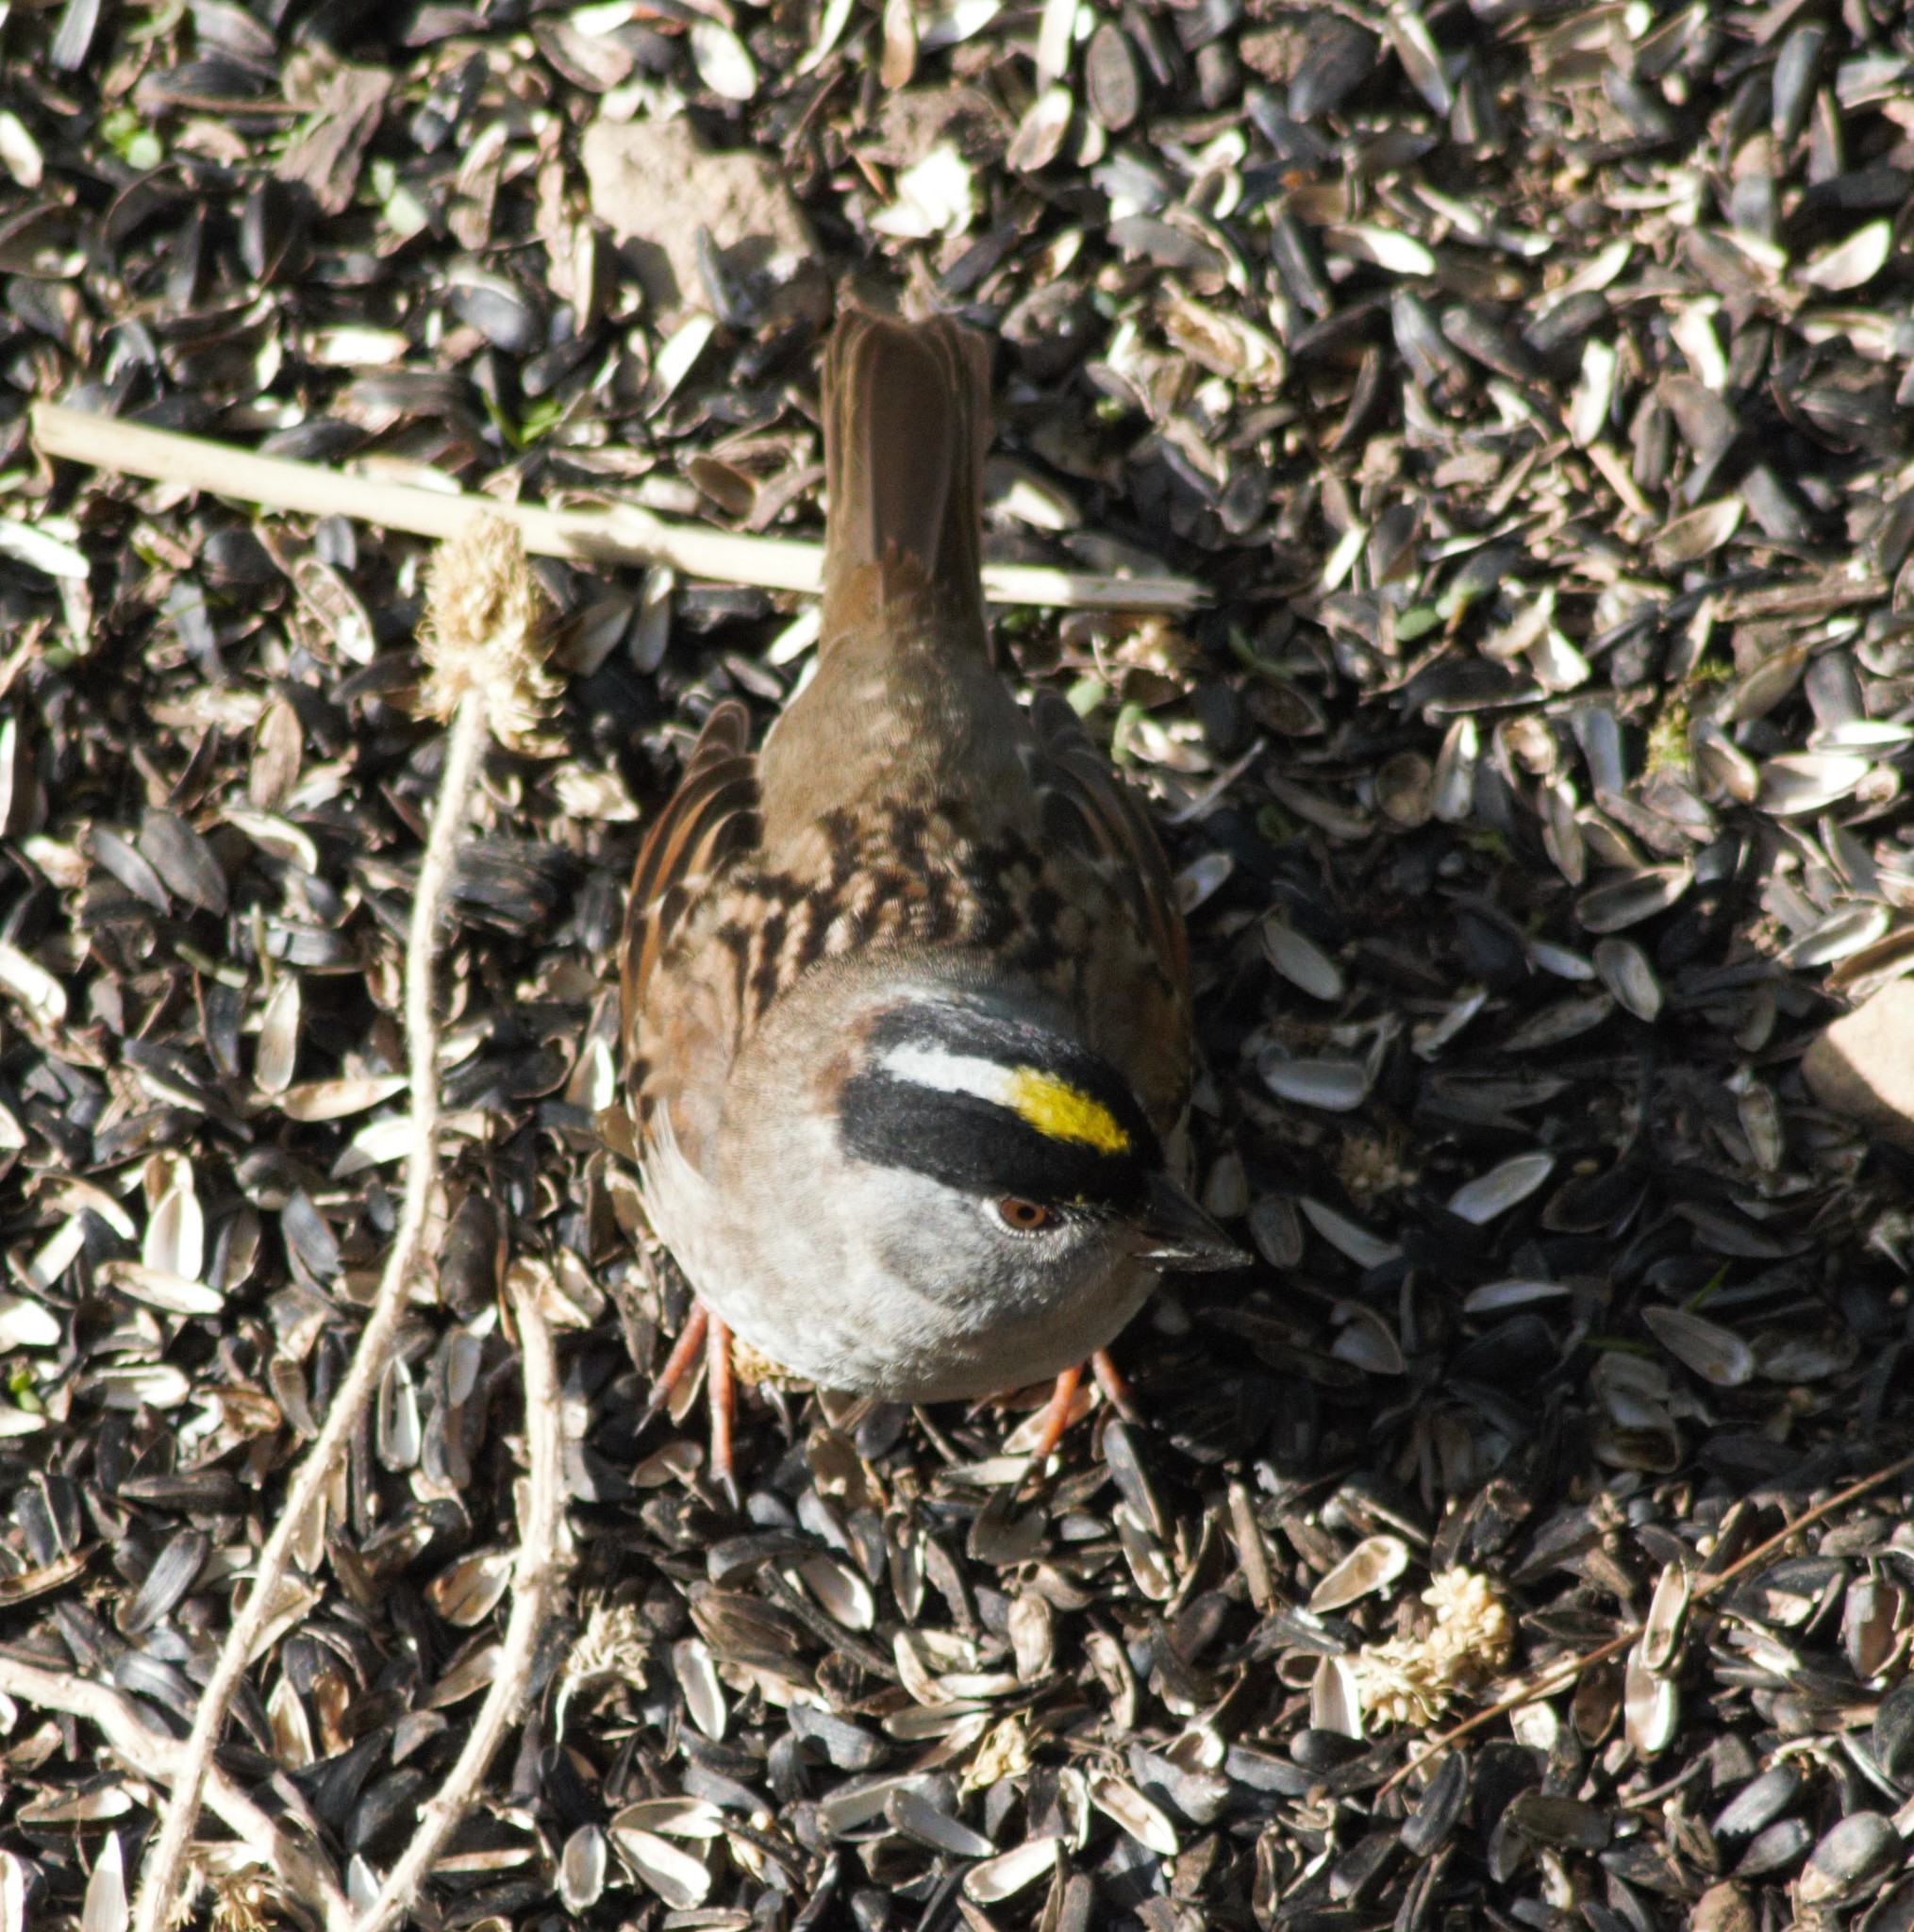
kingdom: Animalia
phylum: Chordata
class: Aves
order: Passeriformes
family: Passerellidae
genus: Zonotrichia
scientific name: Zonotrichia atricapilla
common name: Golden-crowned sparrow
